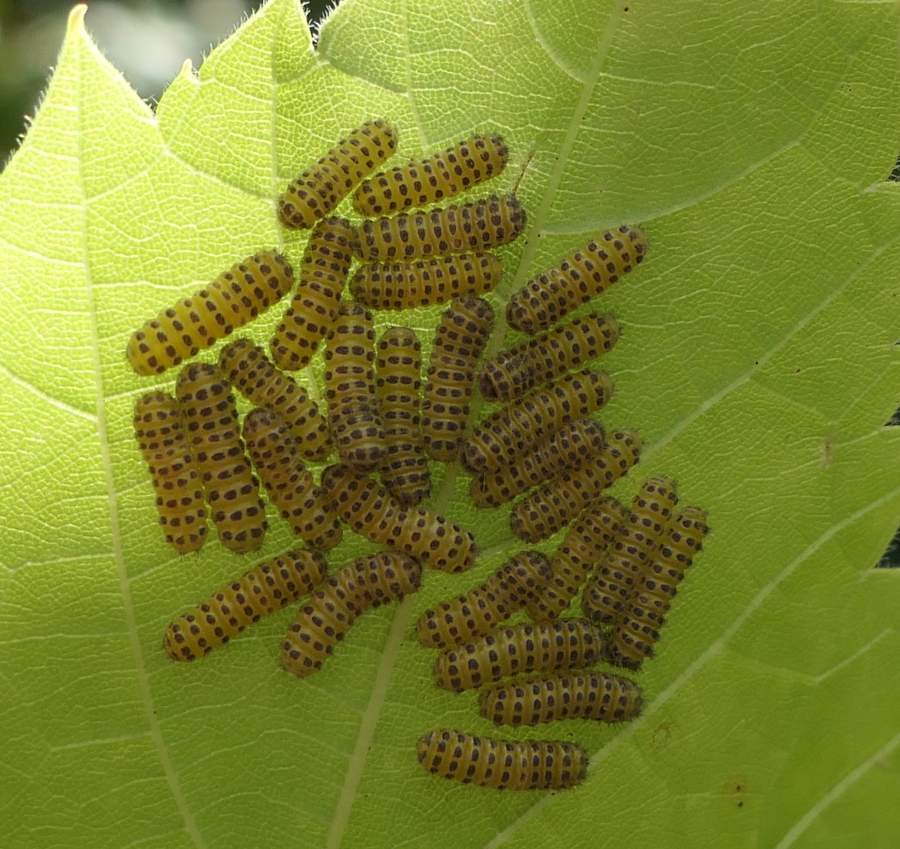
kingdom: Animalia
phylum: Arthropoda
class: Insecta
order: Lepidoptera
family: Zygaenidae
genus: Harrisina
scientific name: Harrisina americana
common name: Grapeleaf skeletonizer moth
